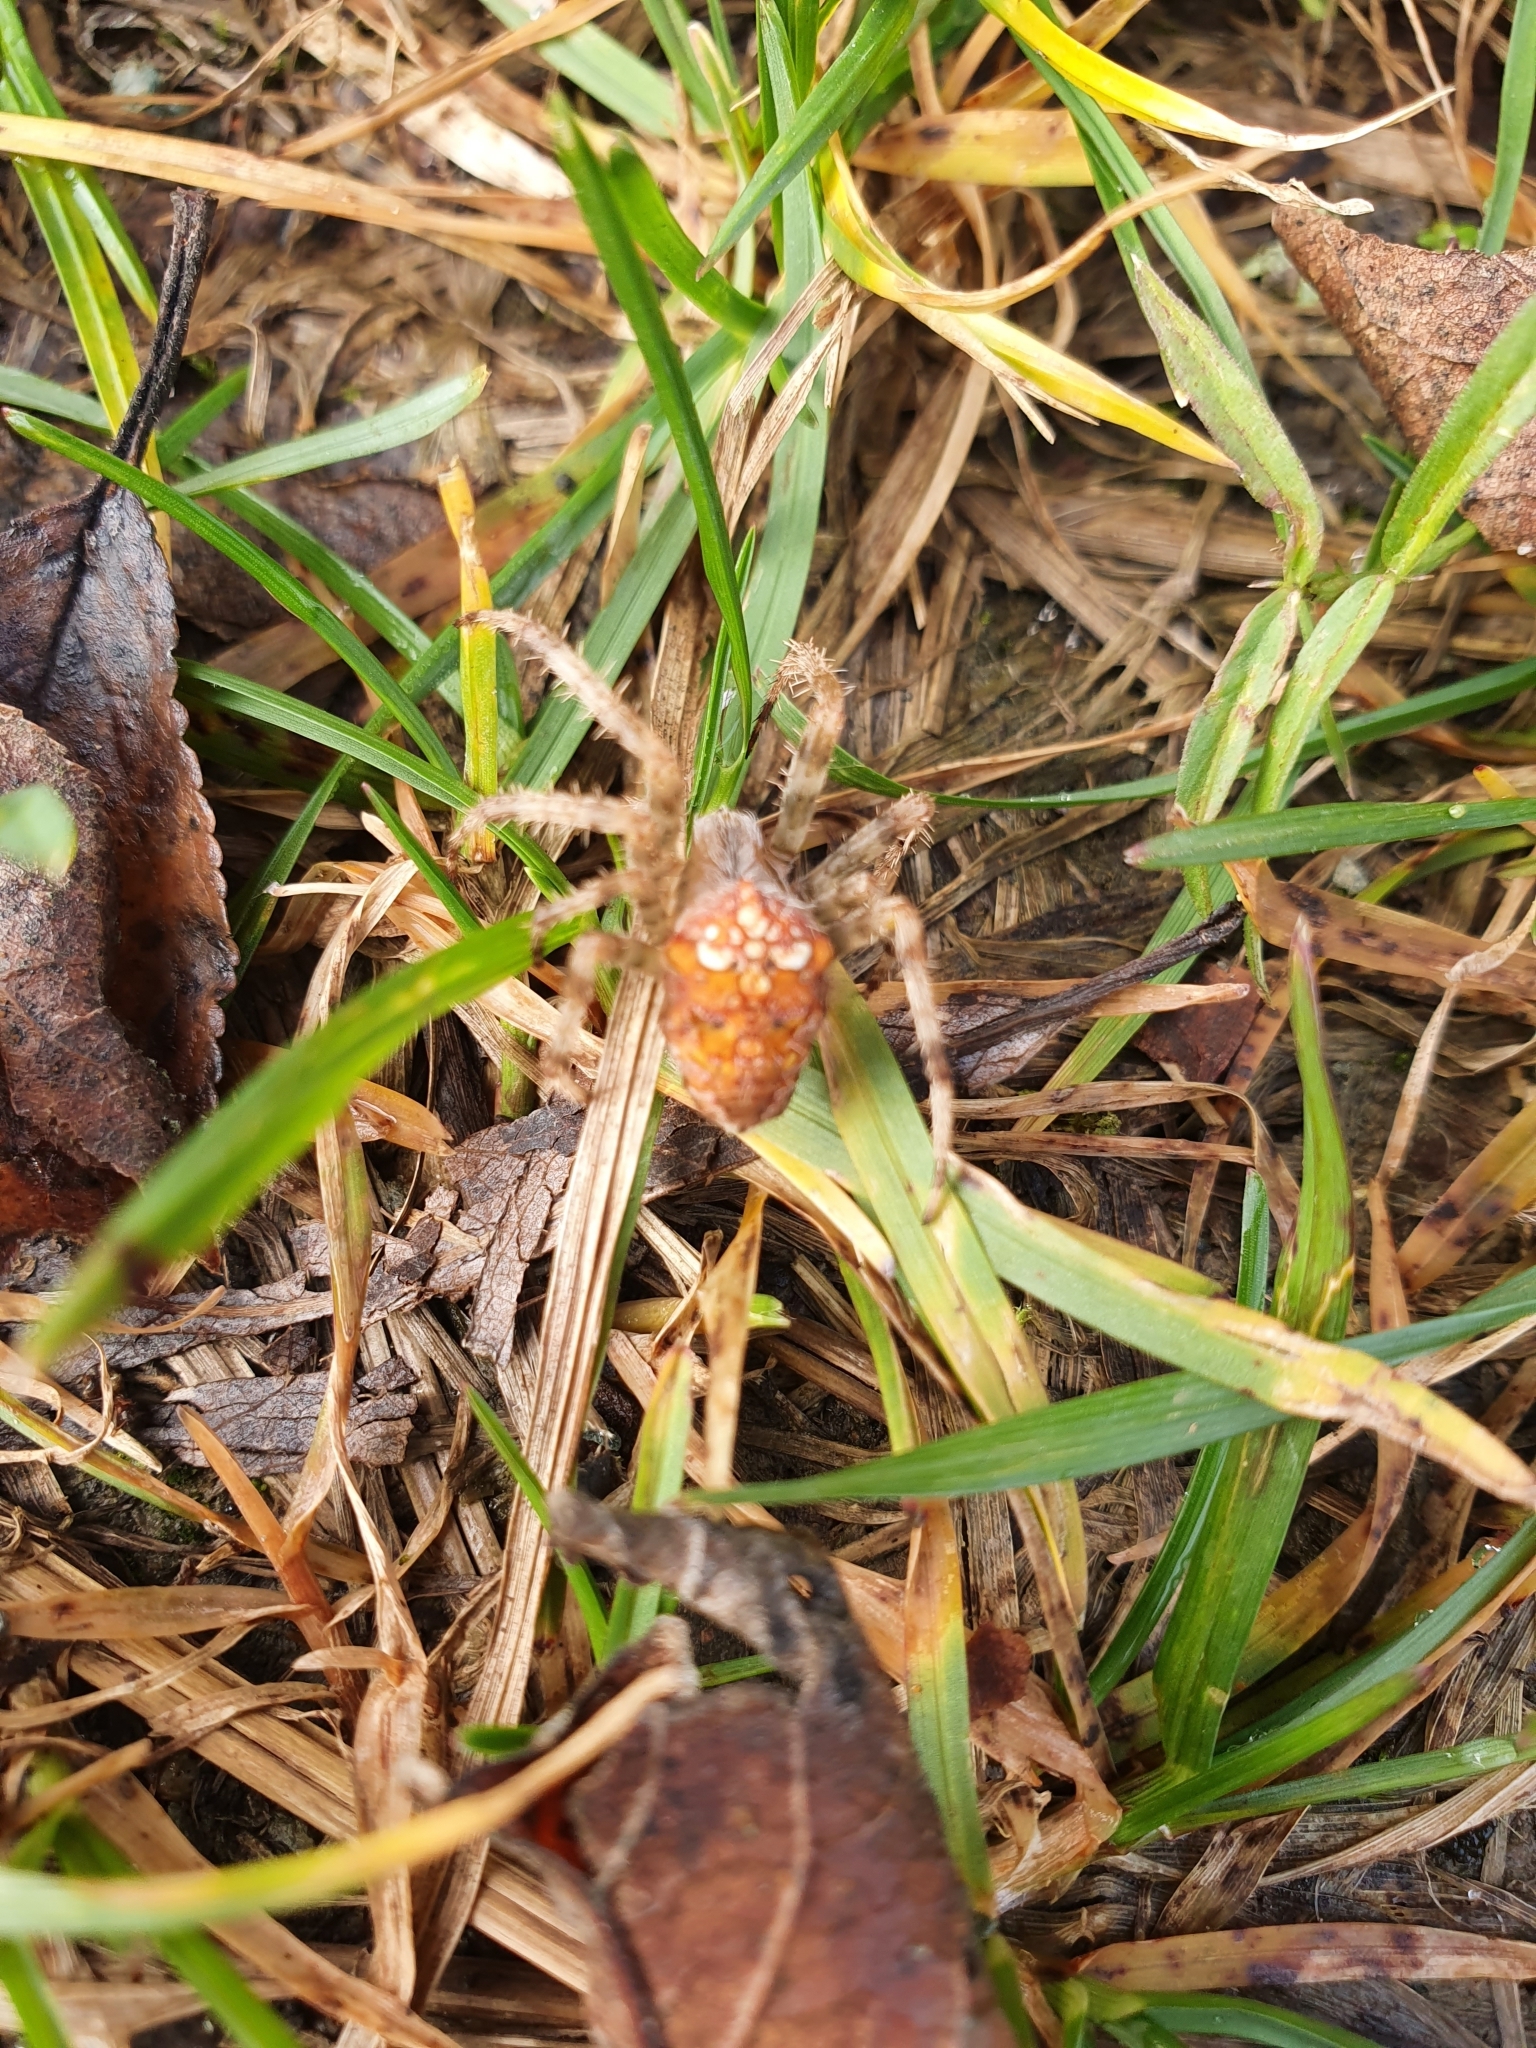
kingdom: Animalia
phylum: Arthropoda
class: Arachnida
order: Araneae
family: Araneidae
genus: Araneus
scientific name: Araneus diadematus
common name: Cross orbweaver
